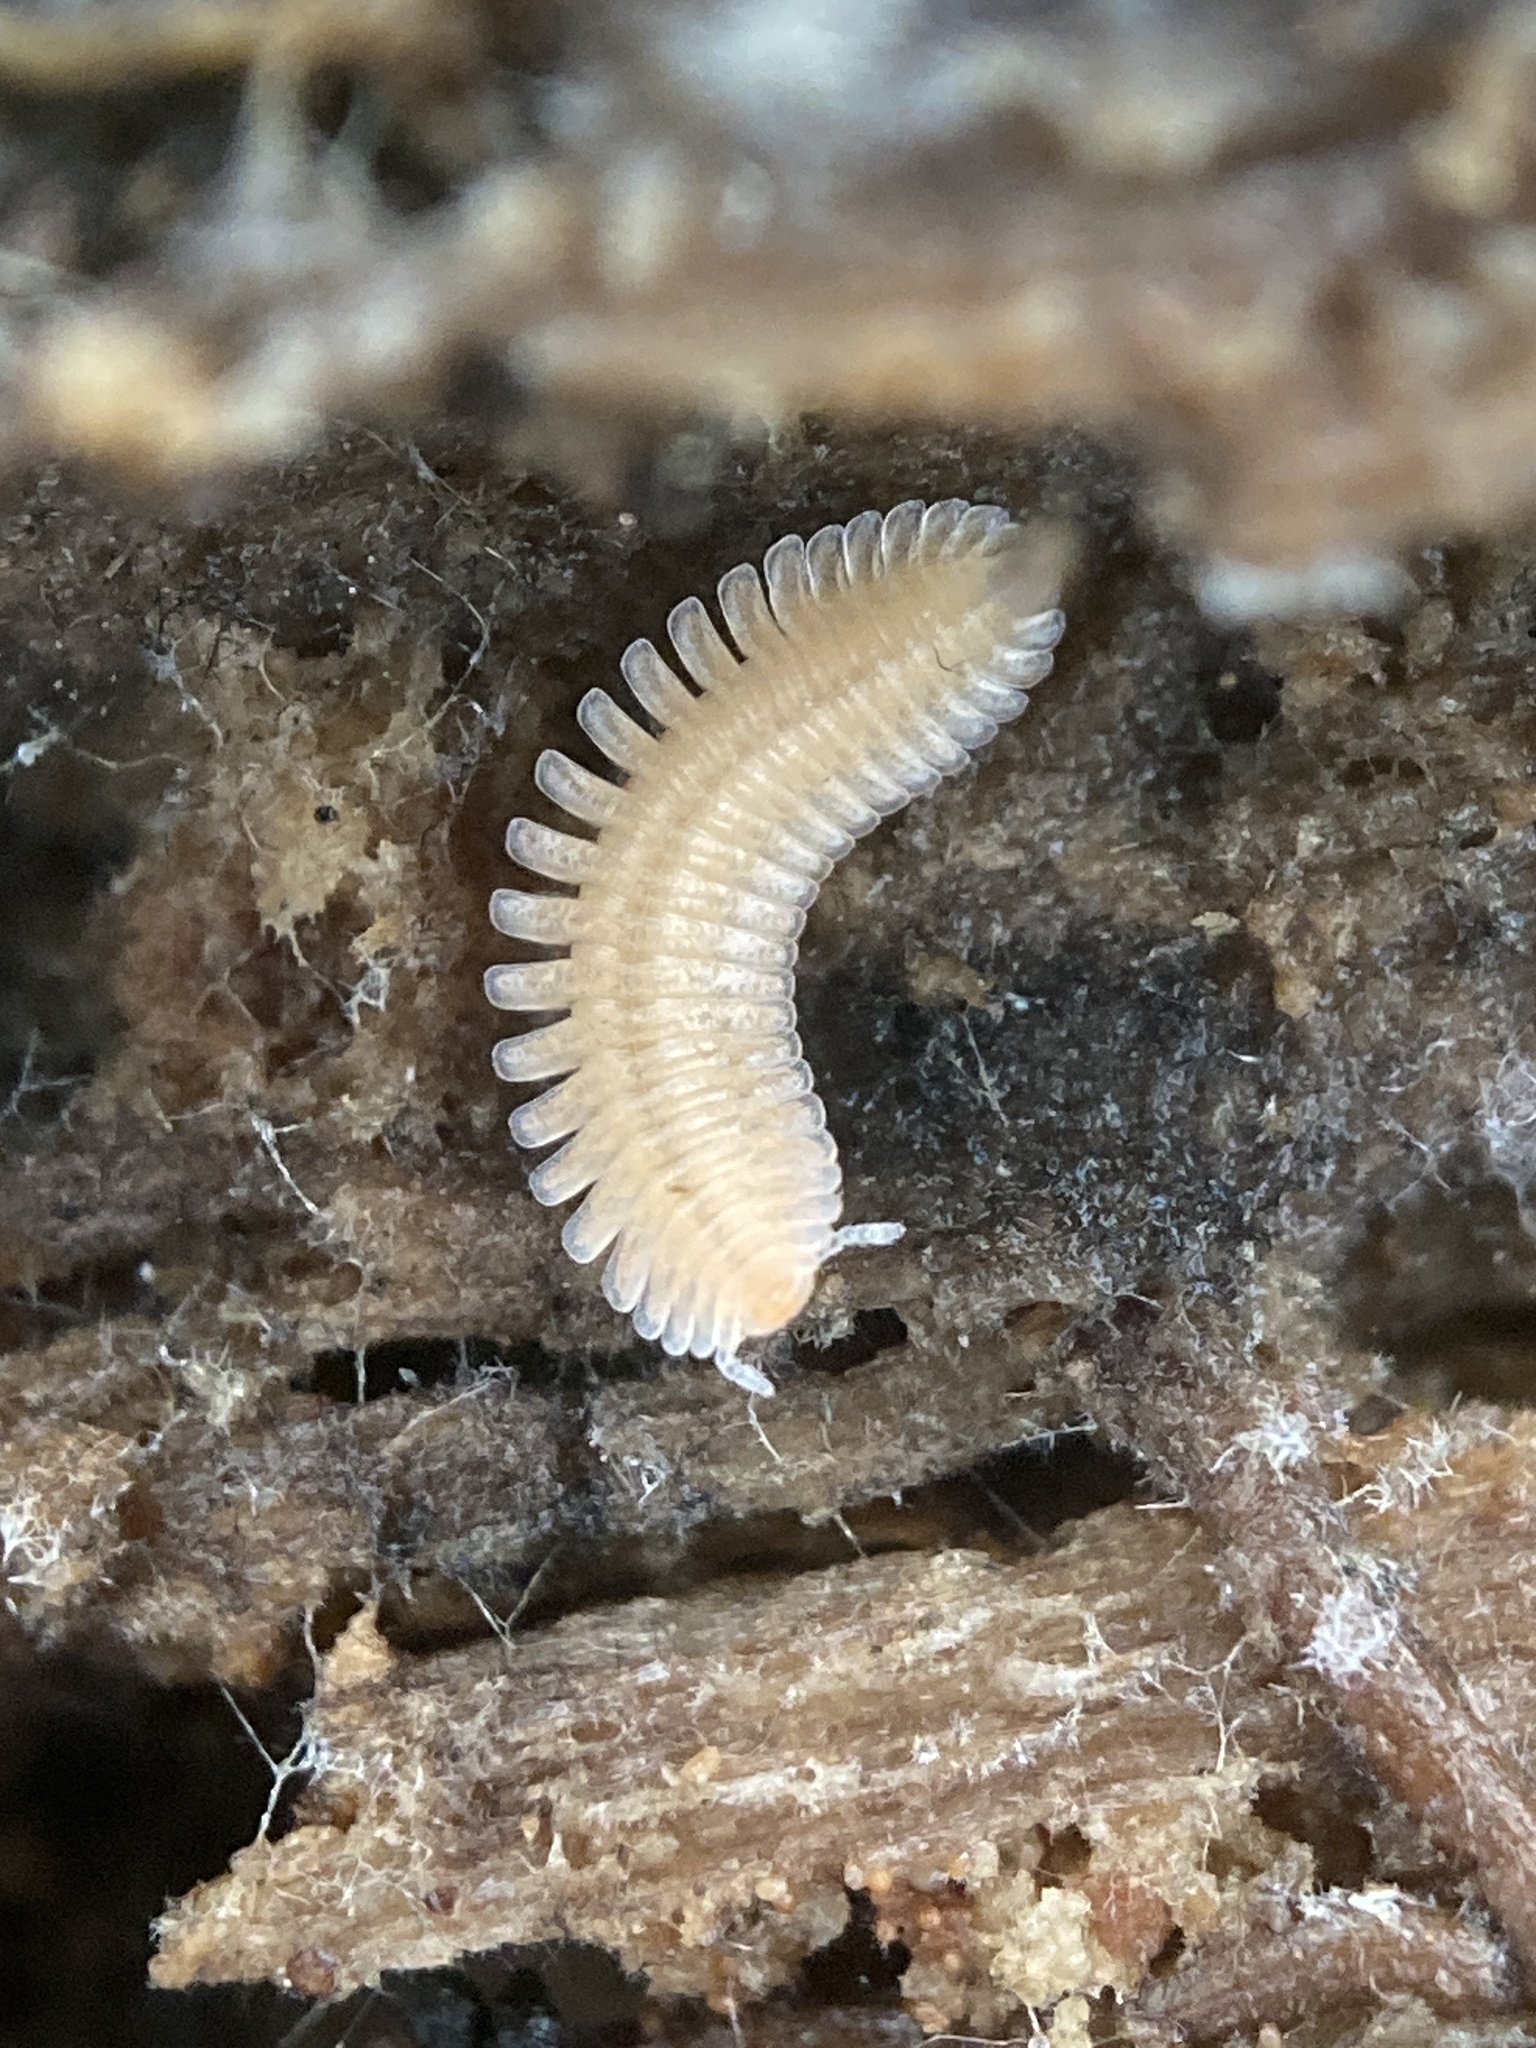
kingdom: Animalia
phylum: Arthropoda
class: Diplopoda
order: Platydesmida
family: Andrognathidae
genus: Brachycybe
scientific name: Brachycybe lecontii
